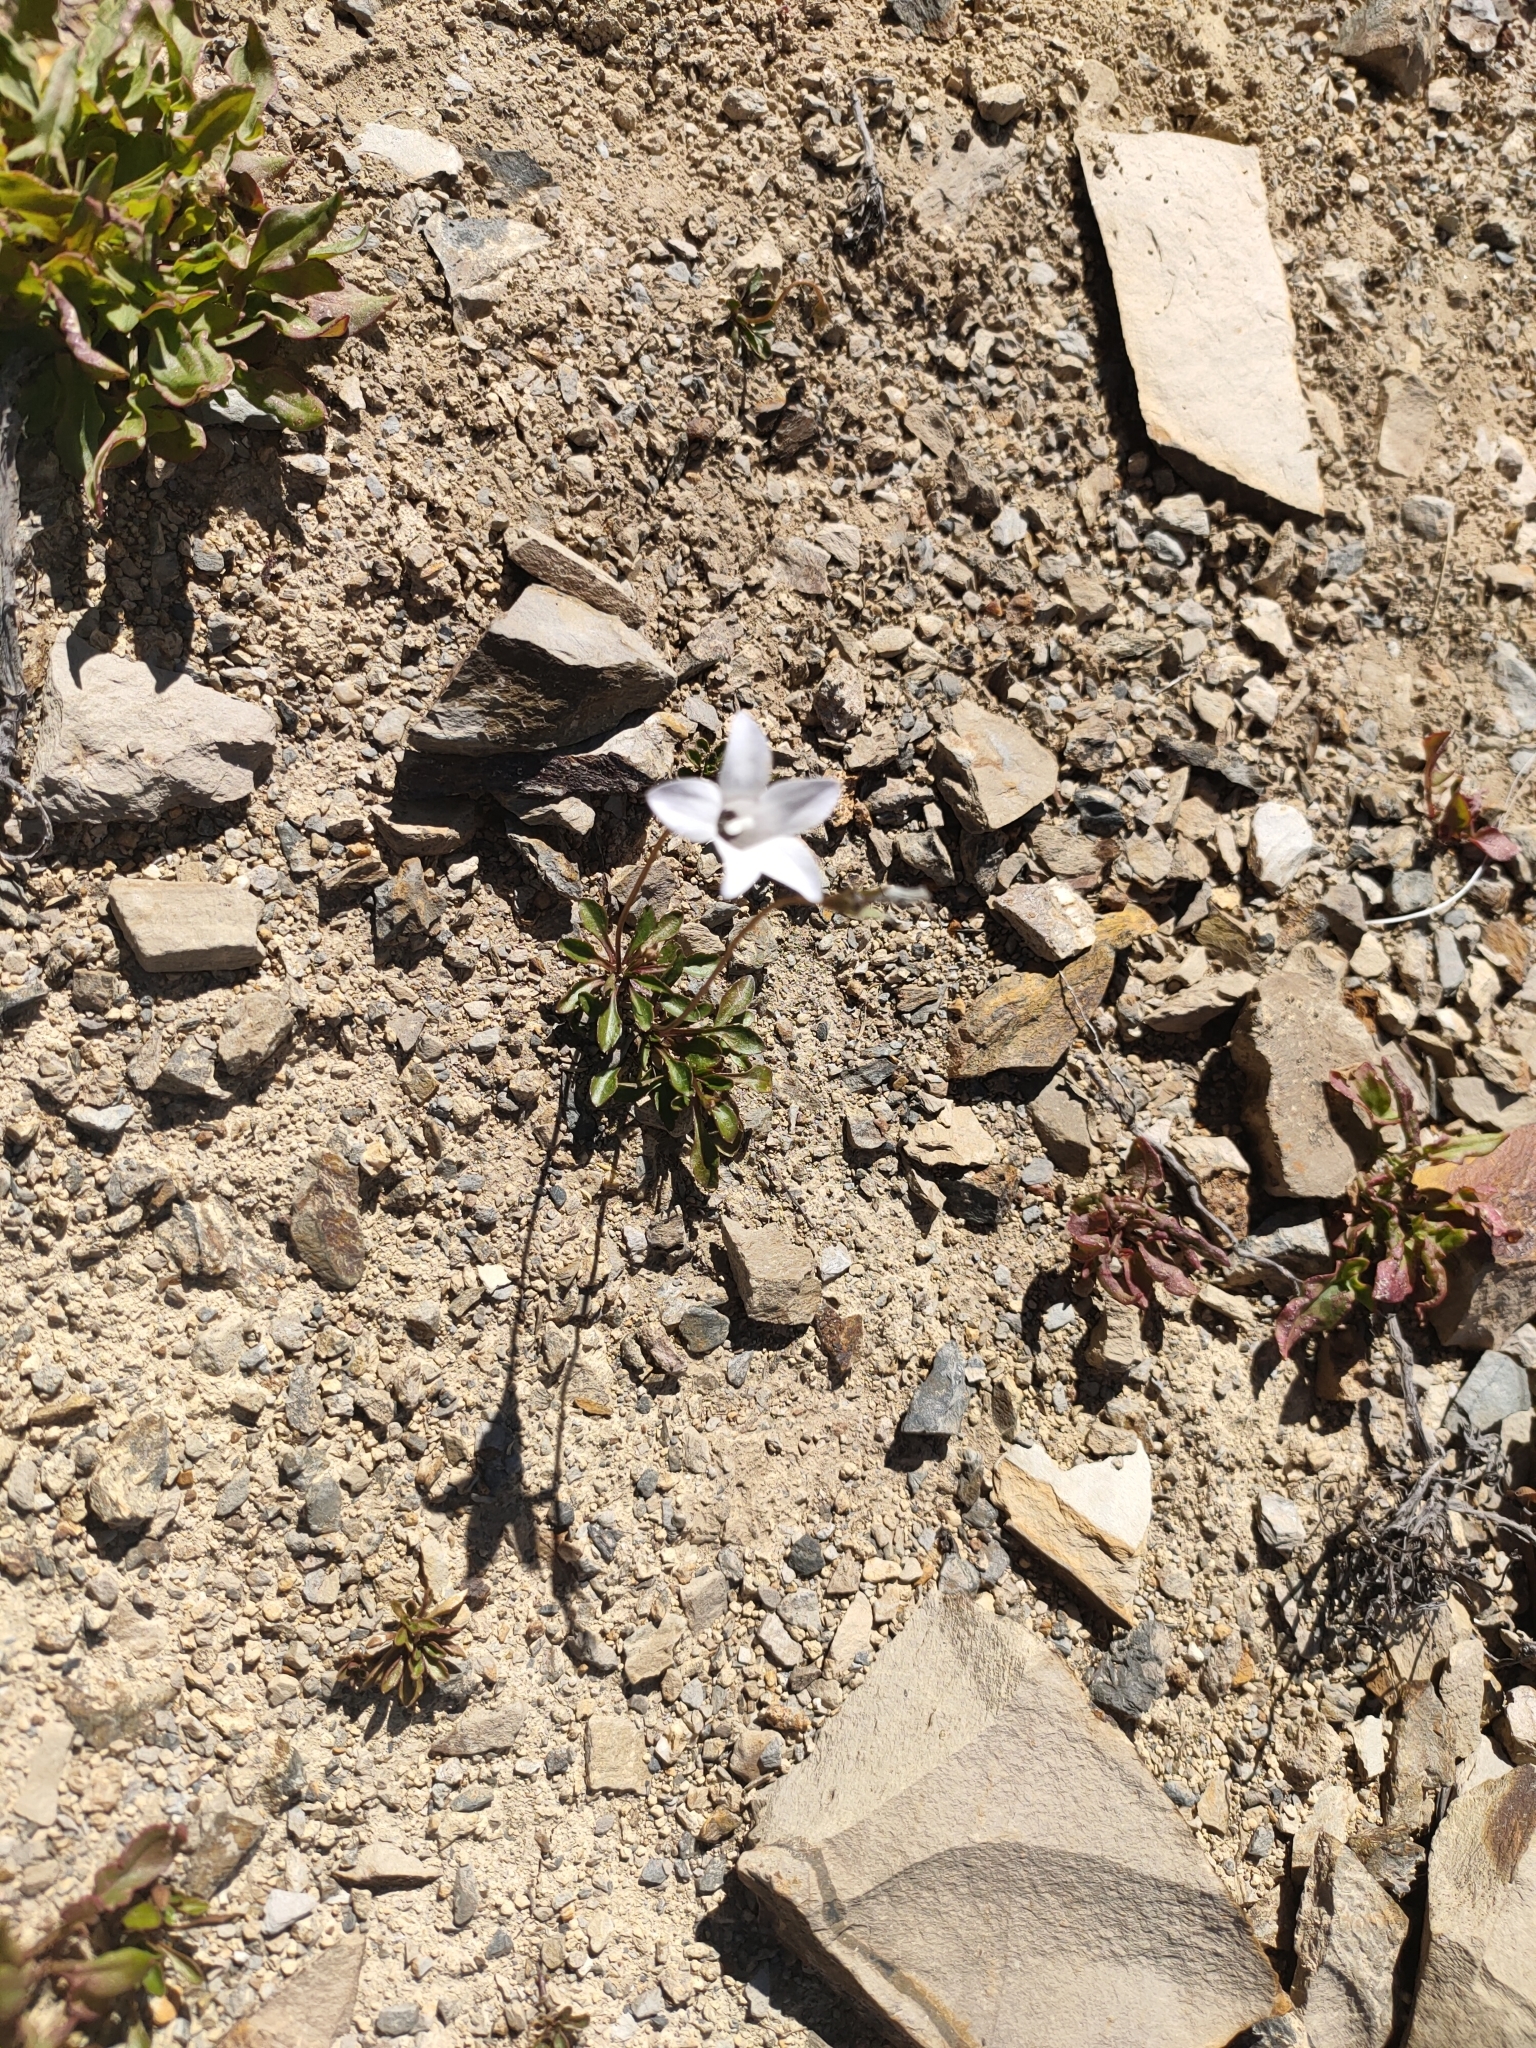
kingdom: Plantae
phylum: Tracheophyta
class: Magnoliopsida
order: Asterales
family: Campanulaceae
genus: Wahlenbergia
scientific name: Wahlenbergia albomarginata
